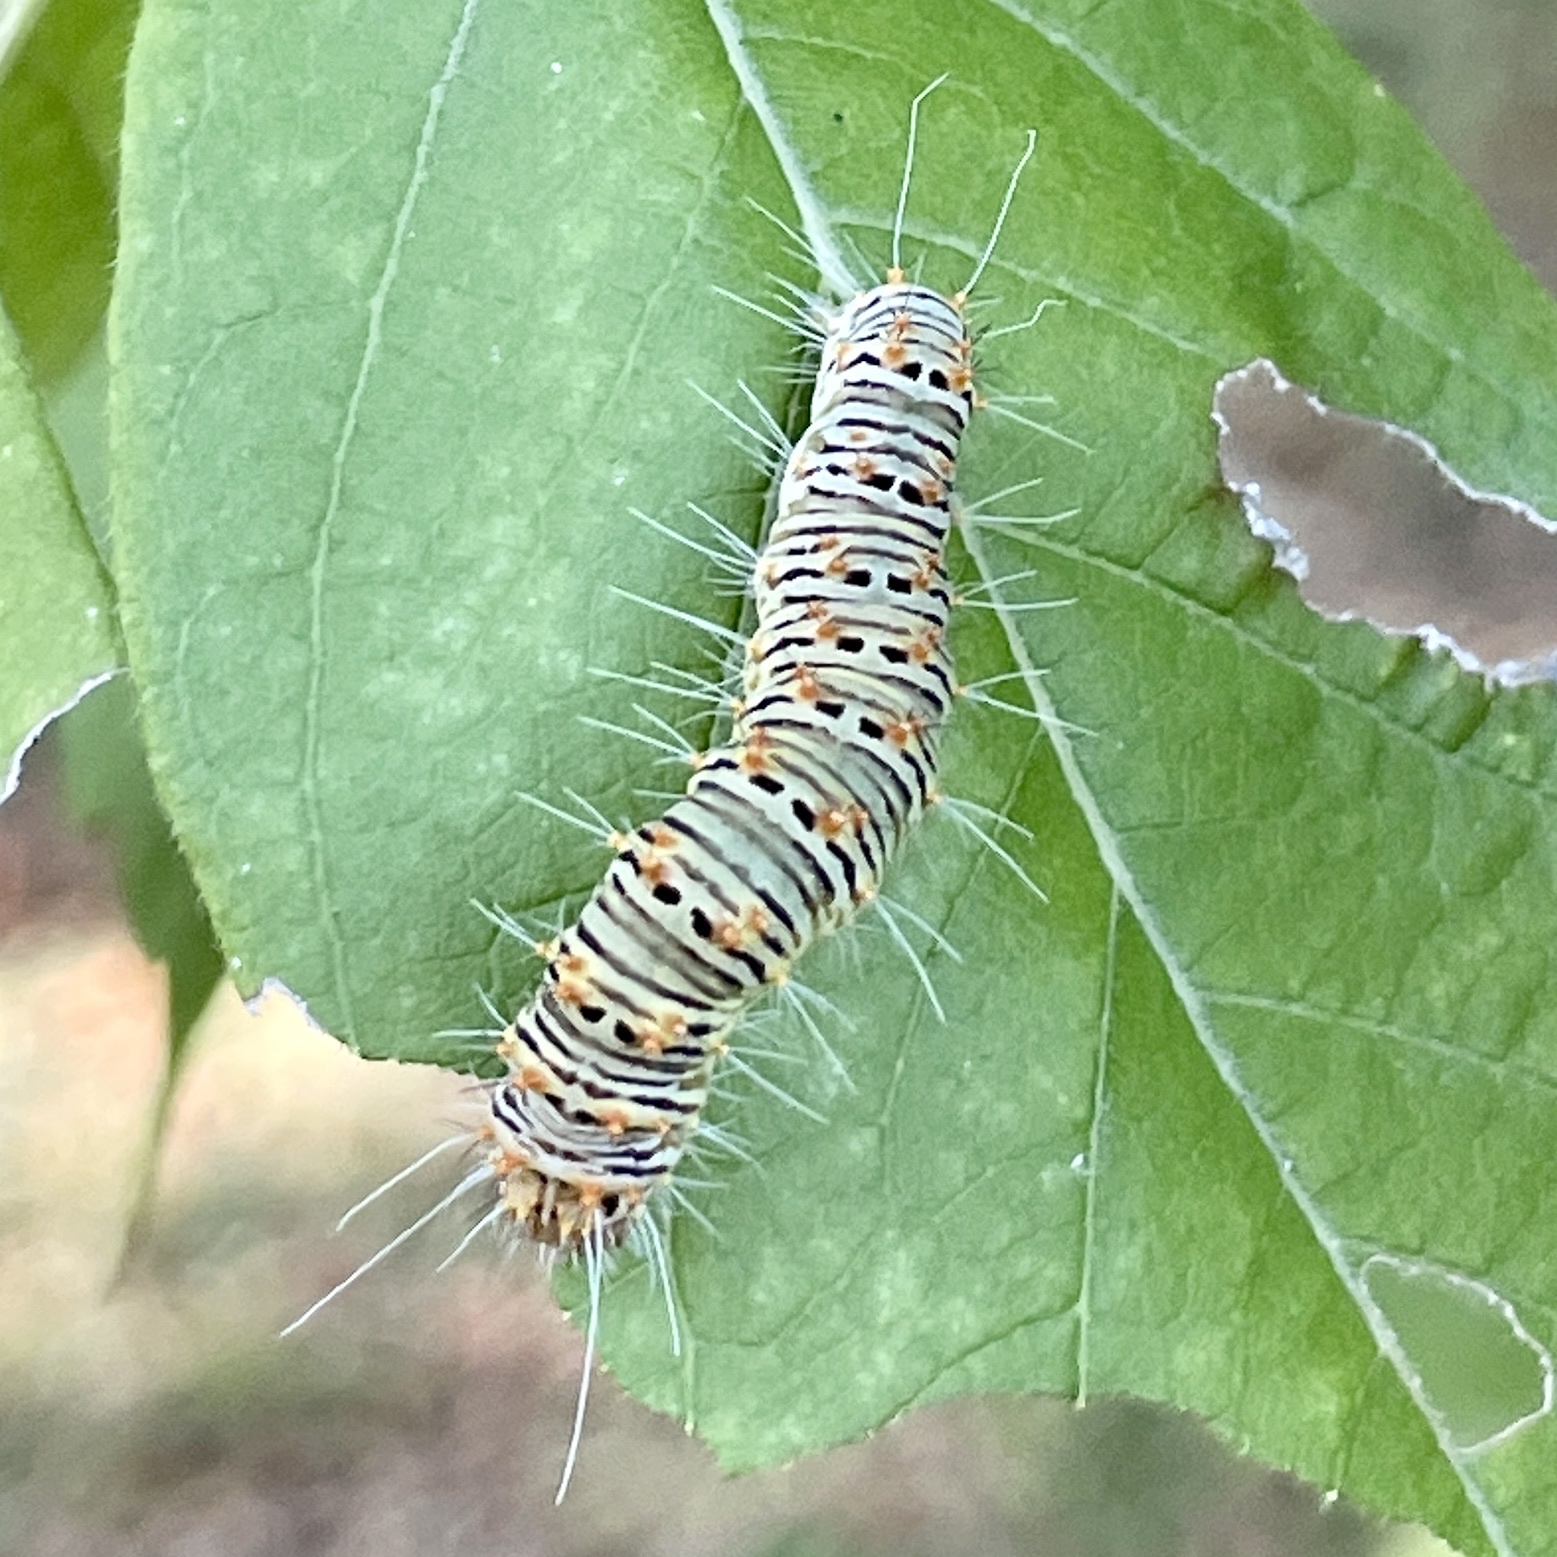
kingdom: Animalia
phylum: Arthropoda
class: Insecta
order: Lepidoptera
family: Noctuidae
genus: Acronicta
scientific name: Acronicta retardata
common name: Maple dagger
